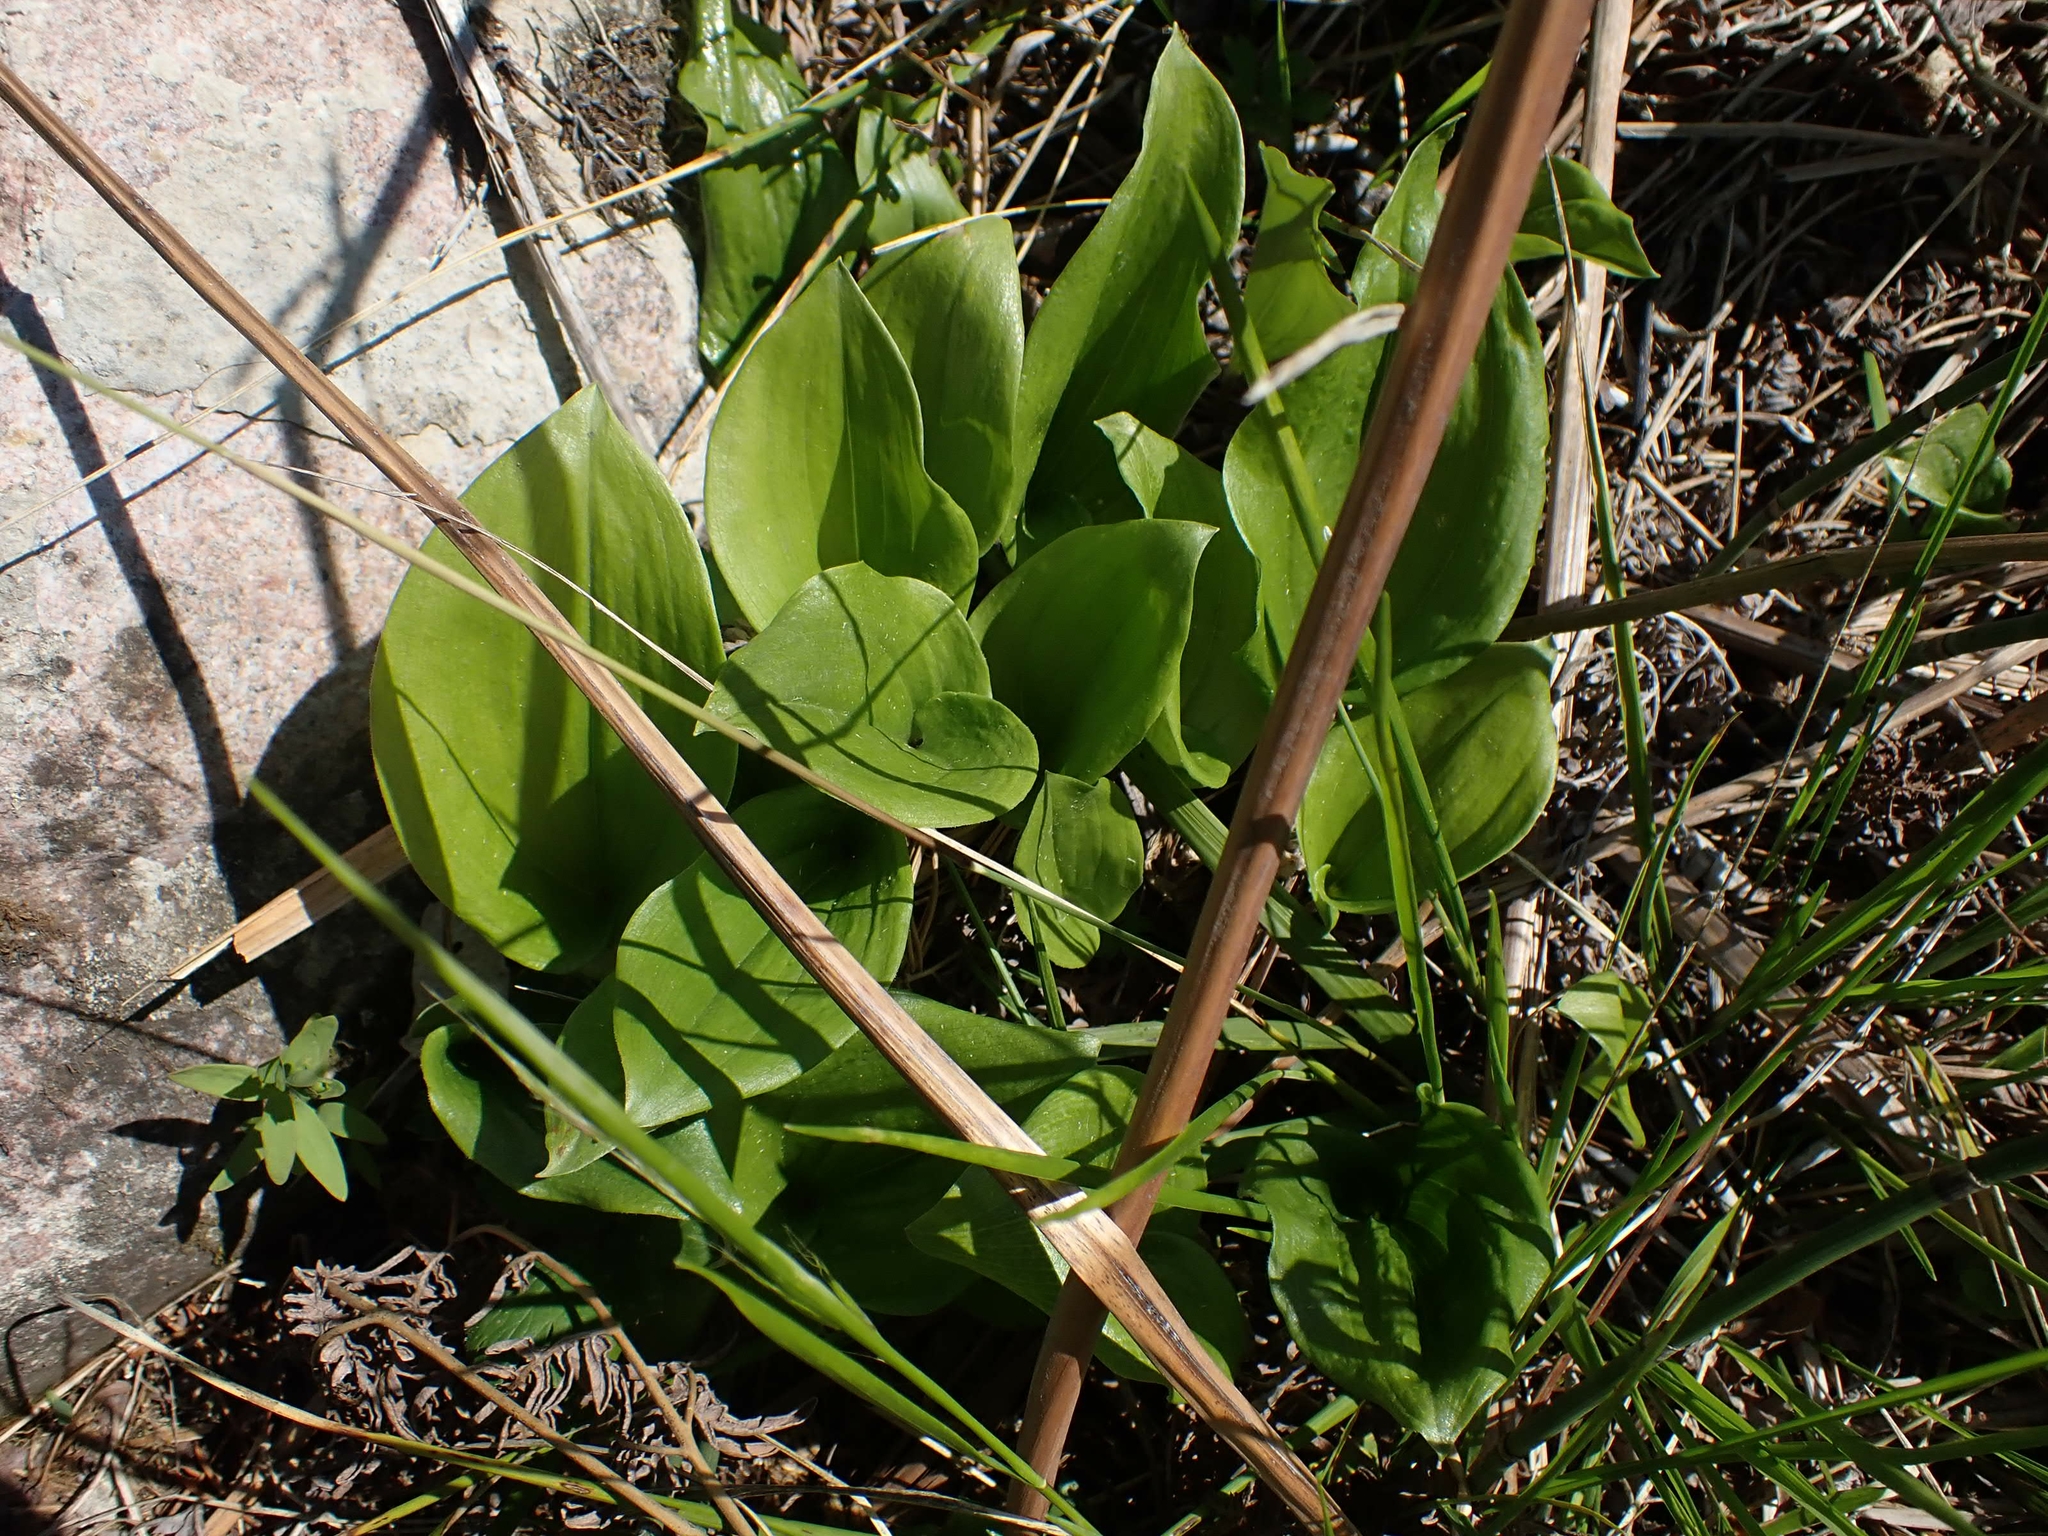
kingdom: Plantae
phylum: Tracheophyta
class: Liliopsida
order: Asparagales
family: Asparagaceae
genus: Maianthemum
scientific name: Maianthemum canadense
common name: False lily-of-the-valley
